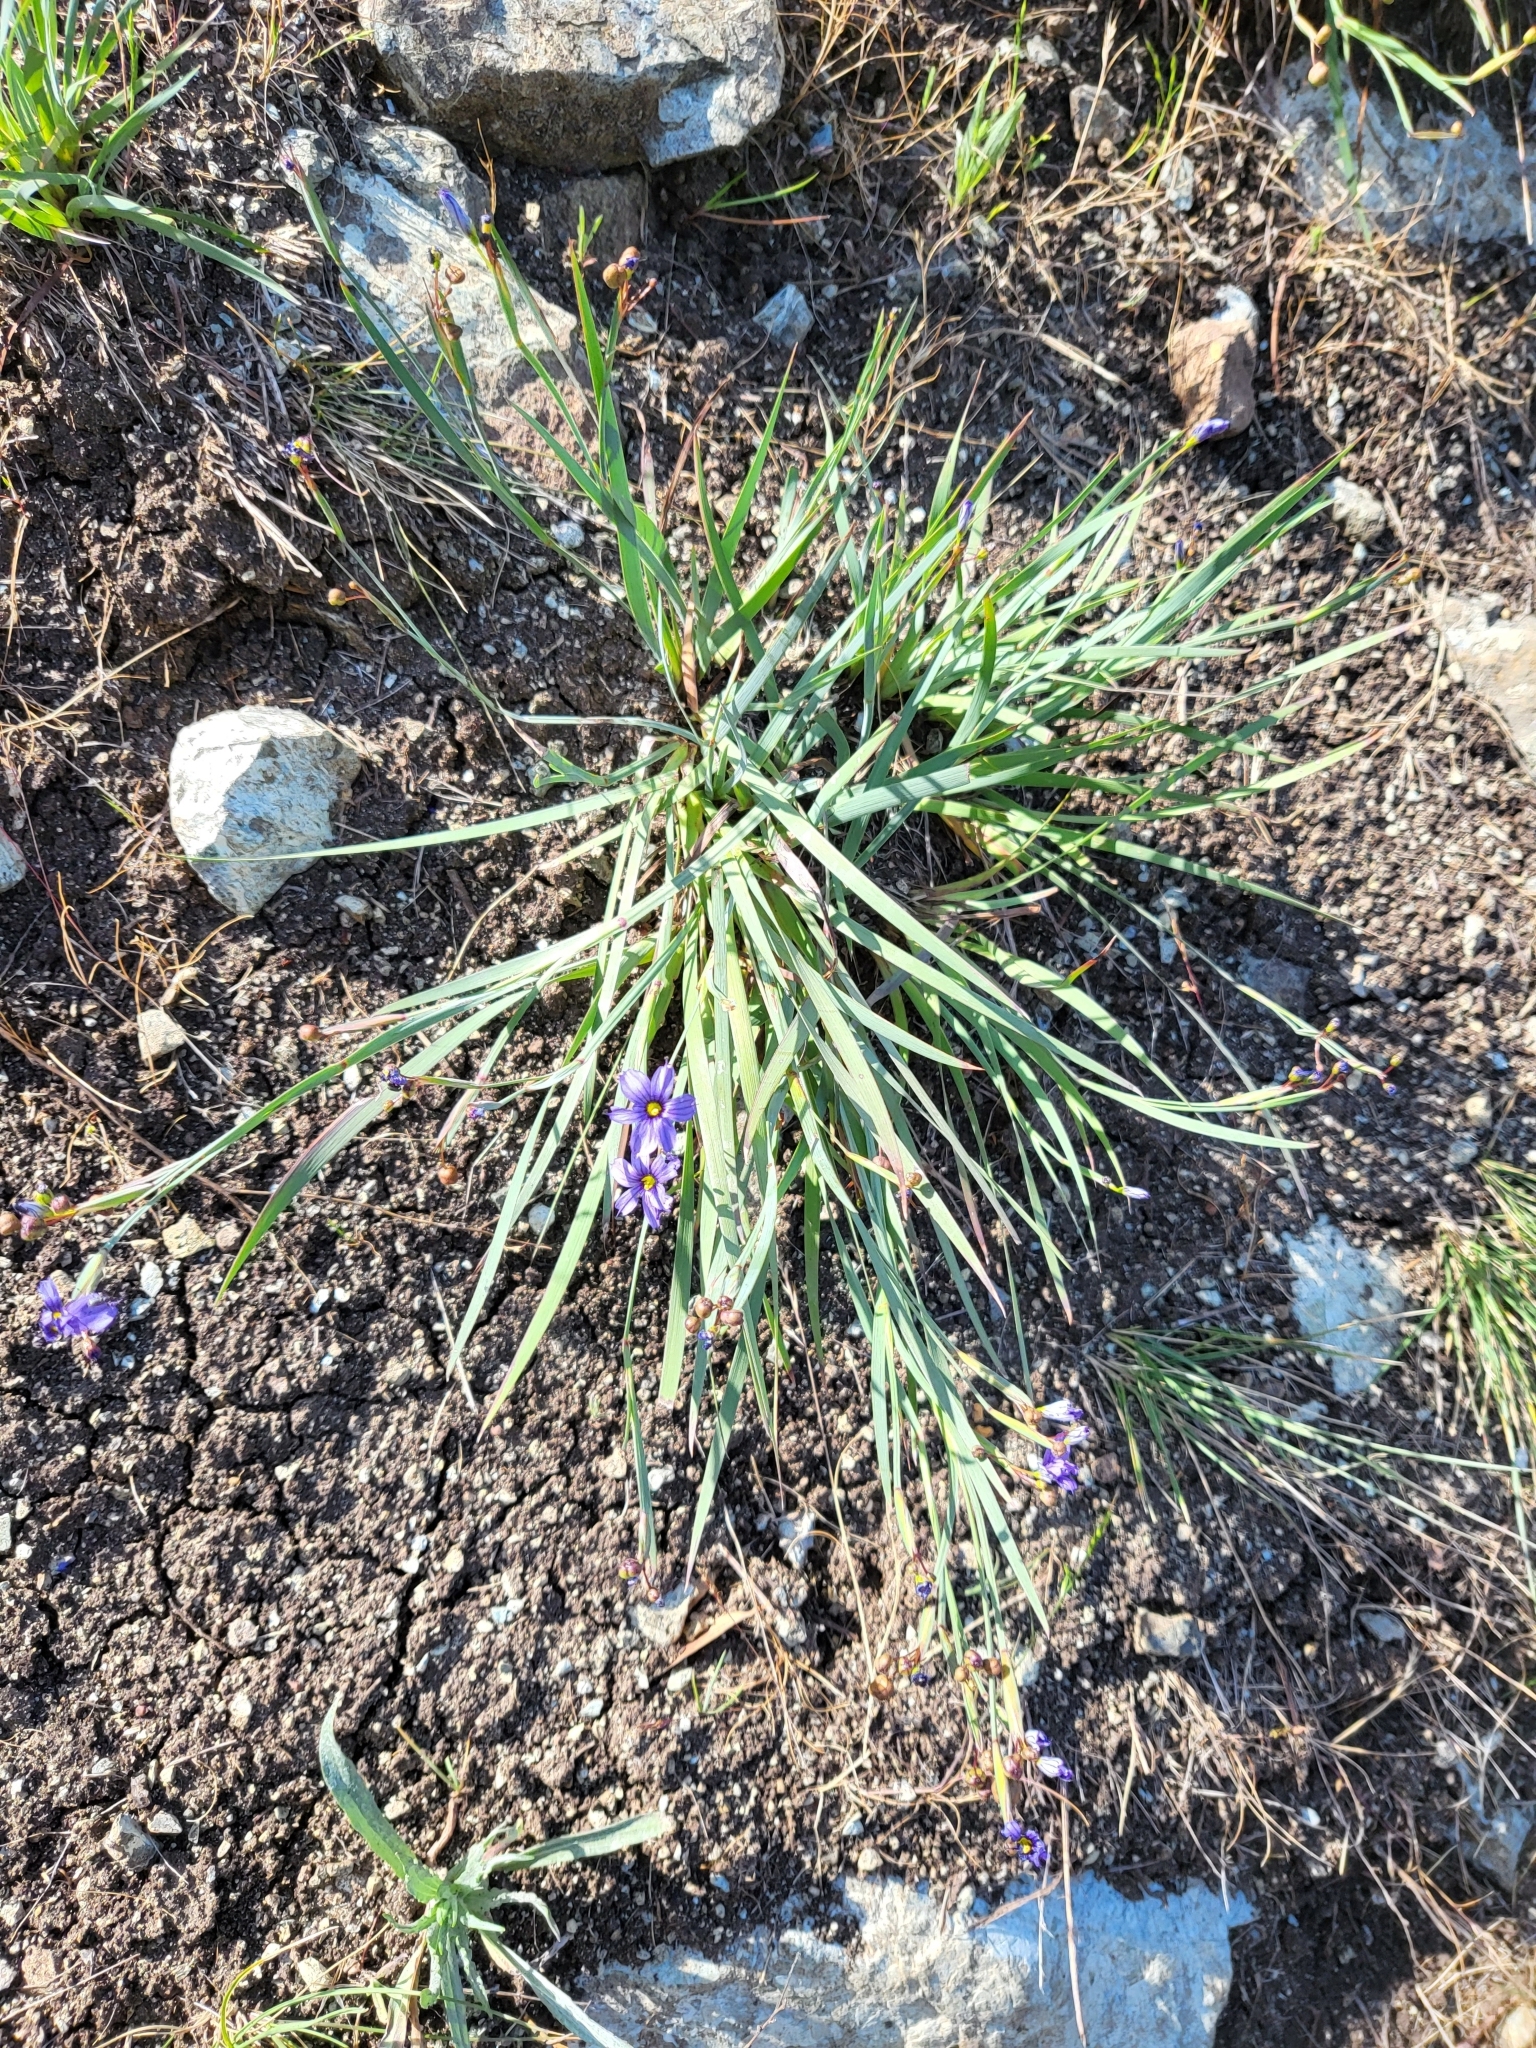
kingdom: Plantae
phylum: Tracheophyta
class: Liliopsida
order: Asparagales
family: Iridaceae
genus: Sisyrinchium
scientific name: Sisyrinchium bellum
